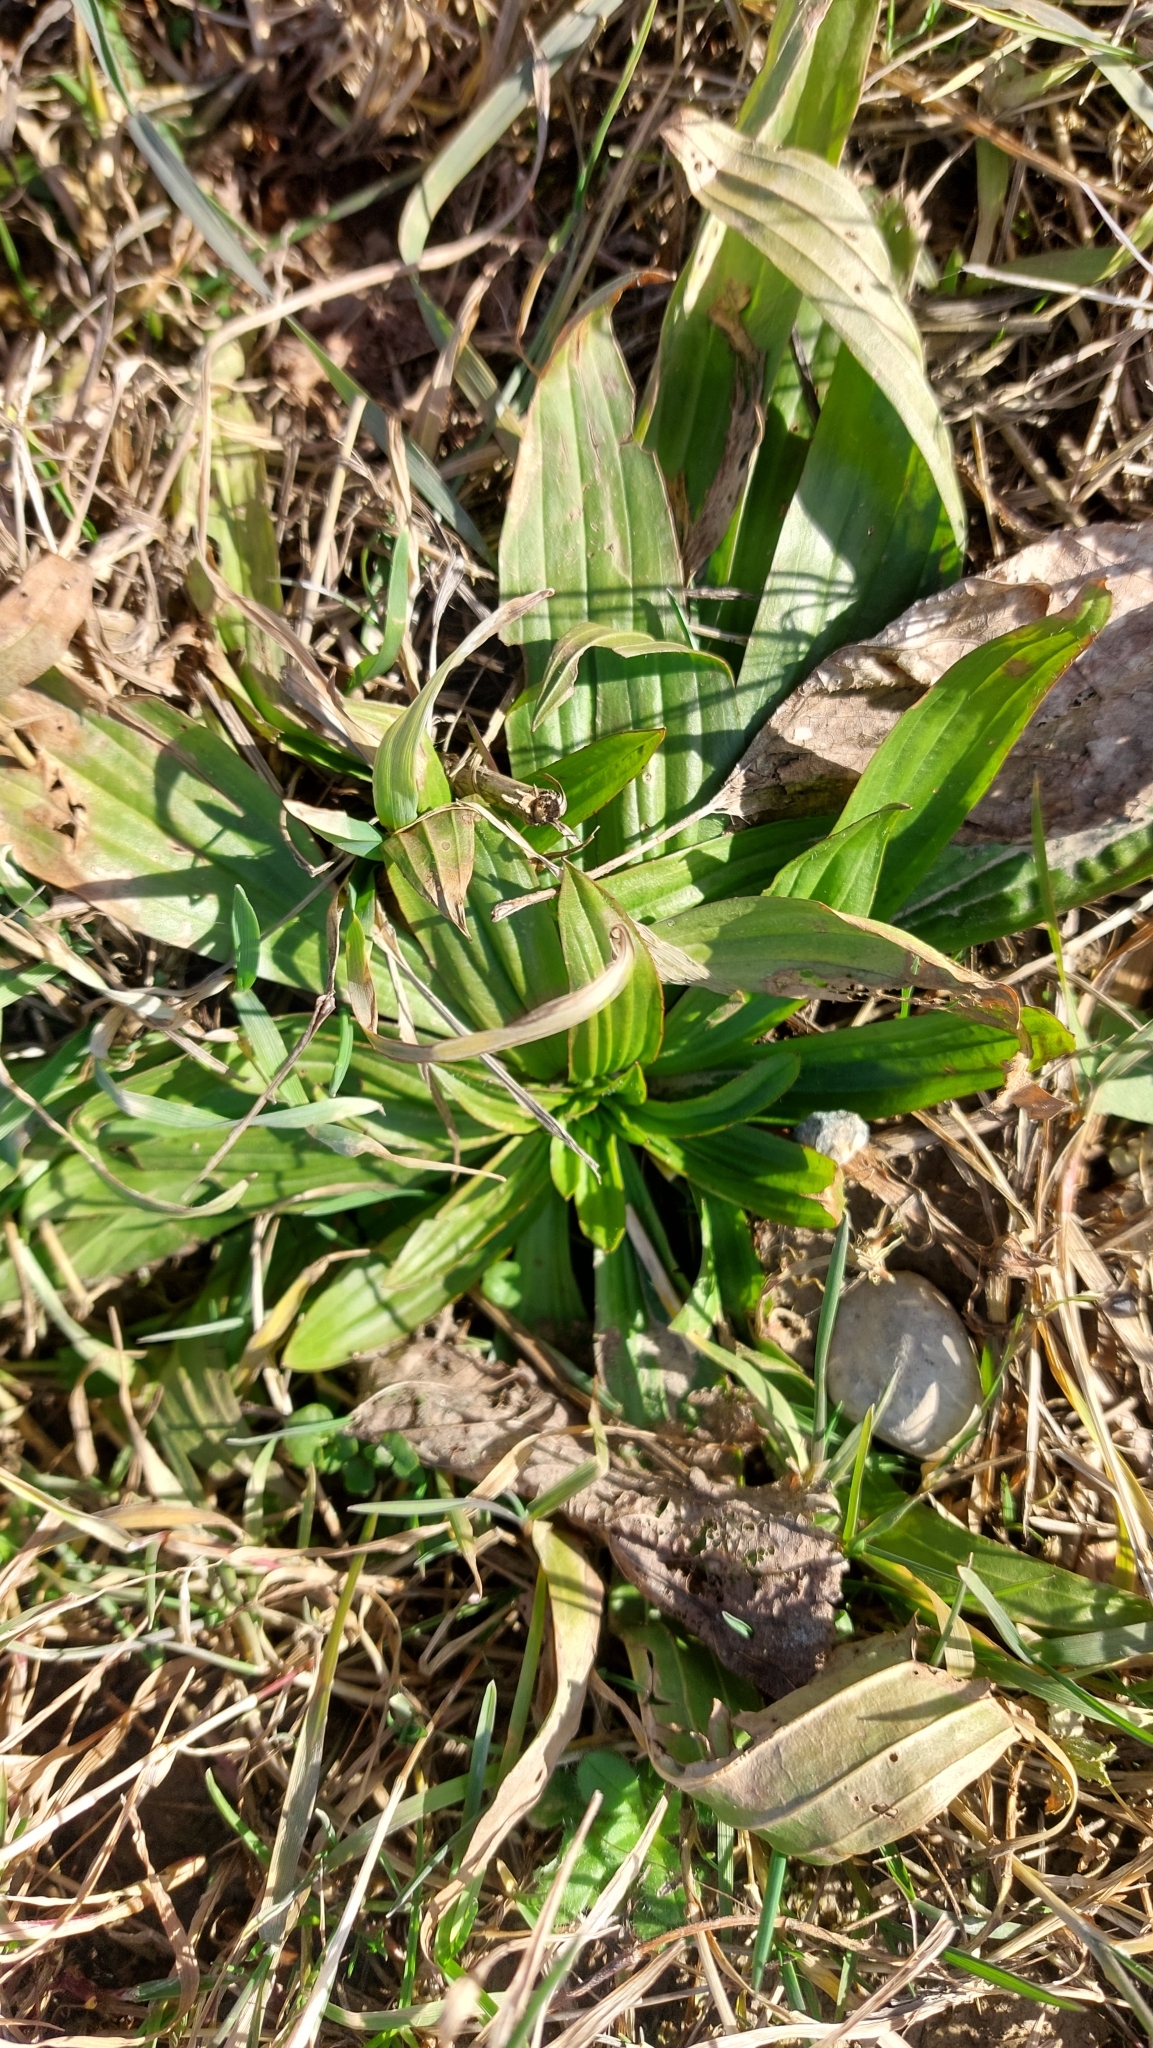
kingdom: Plantae
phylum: Tracheophyta
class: Magnoliopsida
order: Lamiales
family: Plantaginaceae
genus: Plantago
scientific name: Plantago lanceolata
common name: Ribwort plantain
